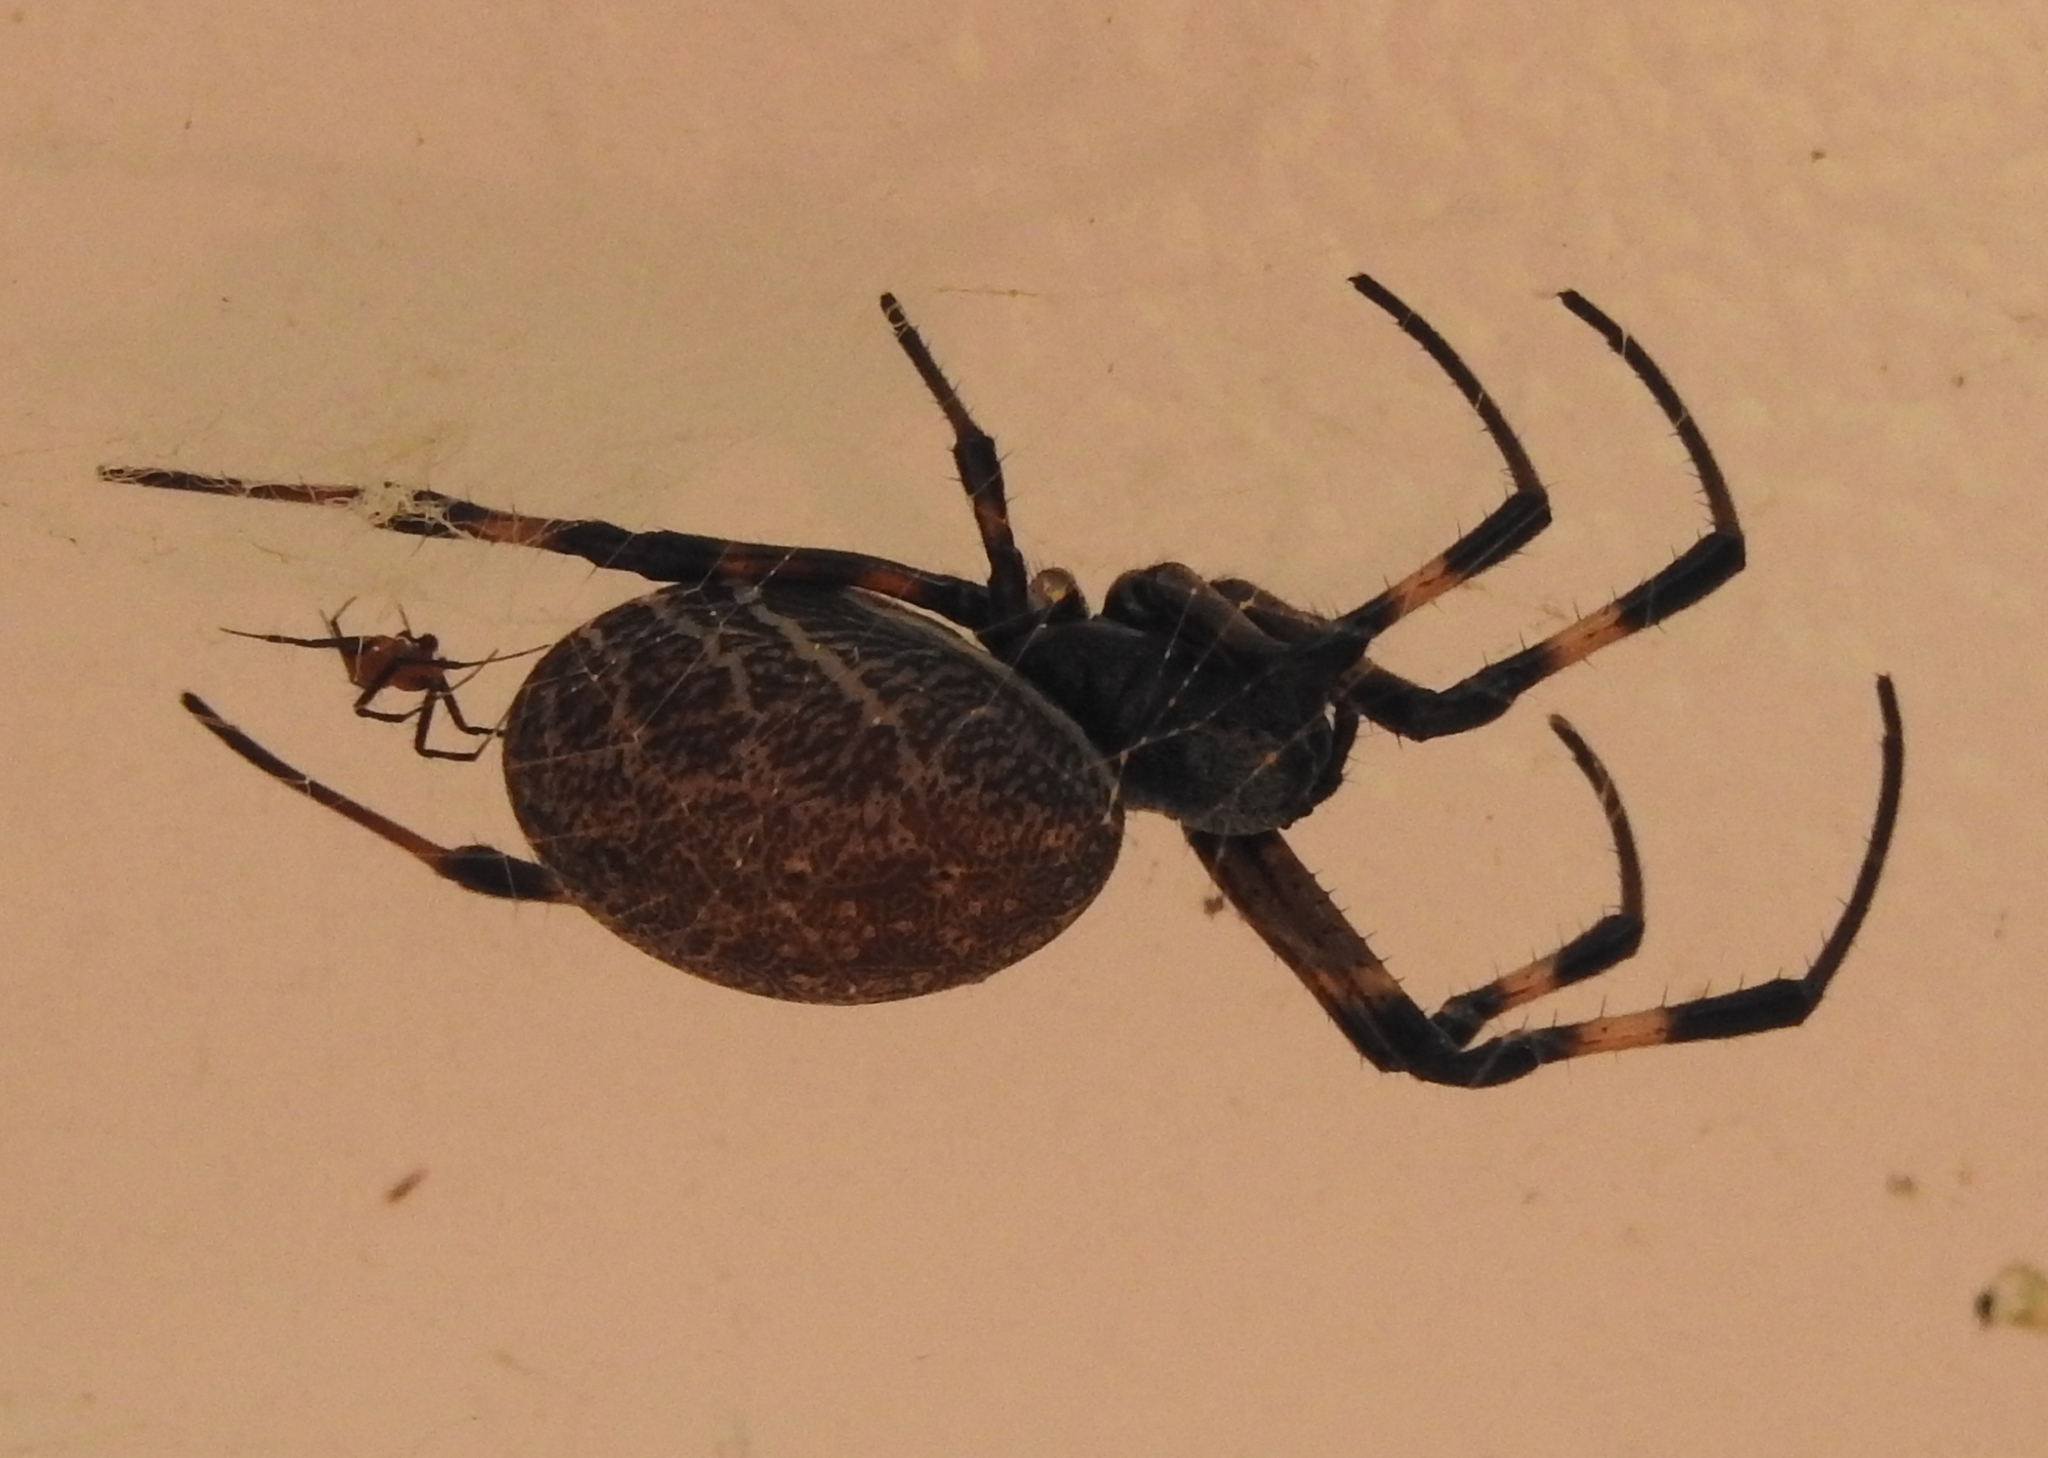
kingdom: Animalia
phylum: Arthropoda
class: Arachnida
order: Araneae
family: Araneidae
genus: Nephilengys
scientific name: Nephilengys malabarensis
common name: Asian hermit spider
